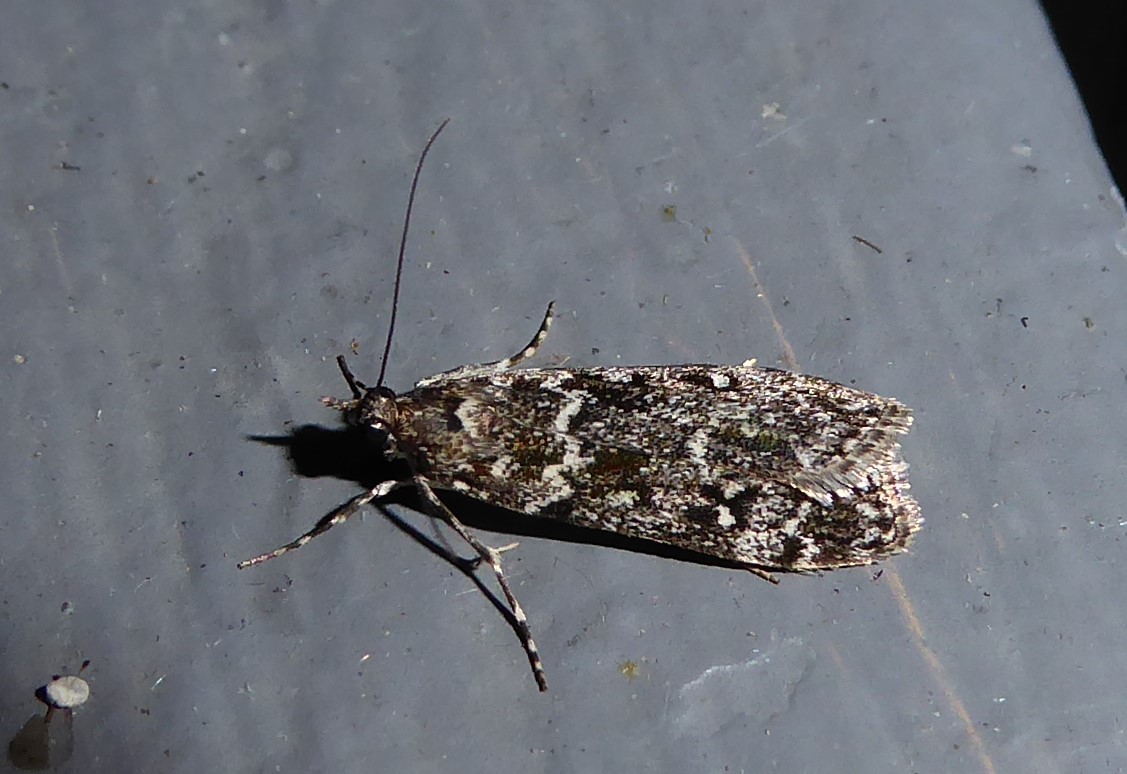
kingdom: Animalia
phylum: Arthropoda
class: Insecta
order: Lepidoptera
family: Crambidae
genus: Eudonia
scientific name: Eudonia philerga
